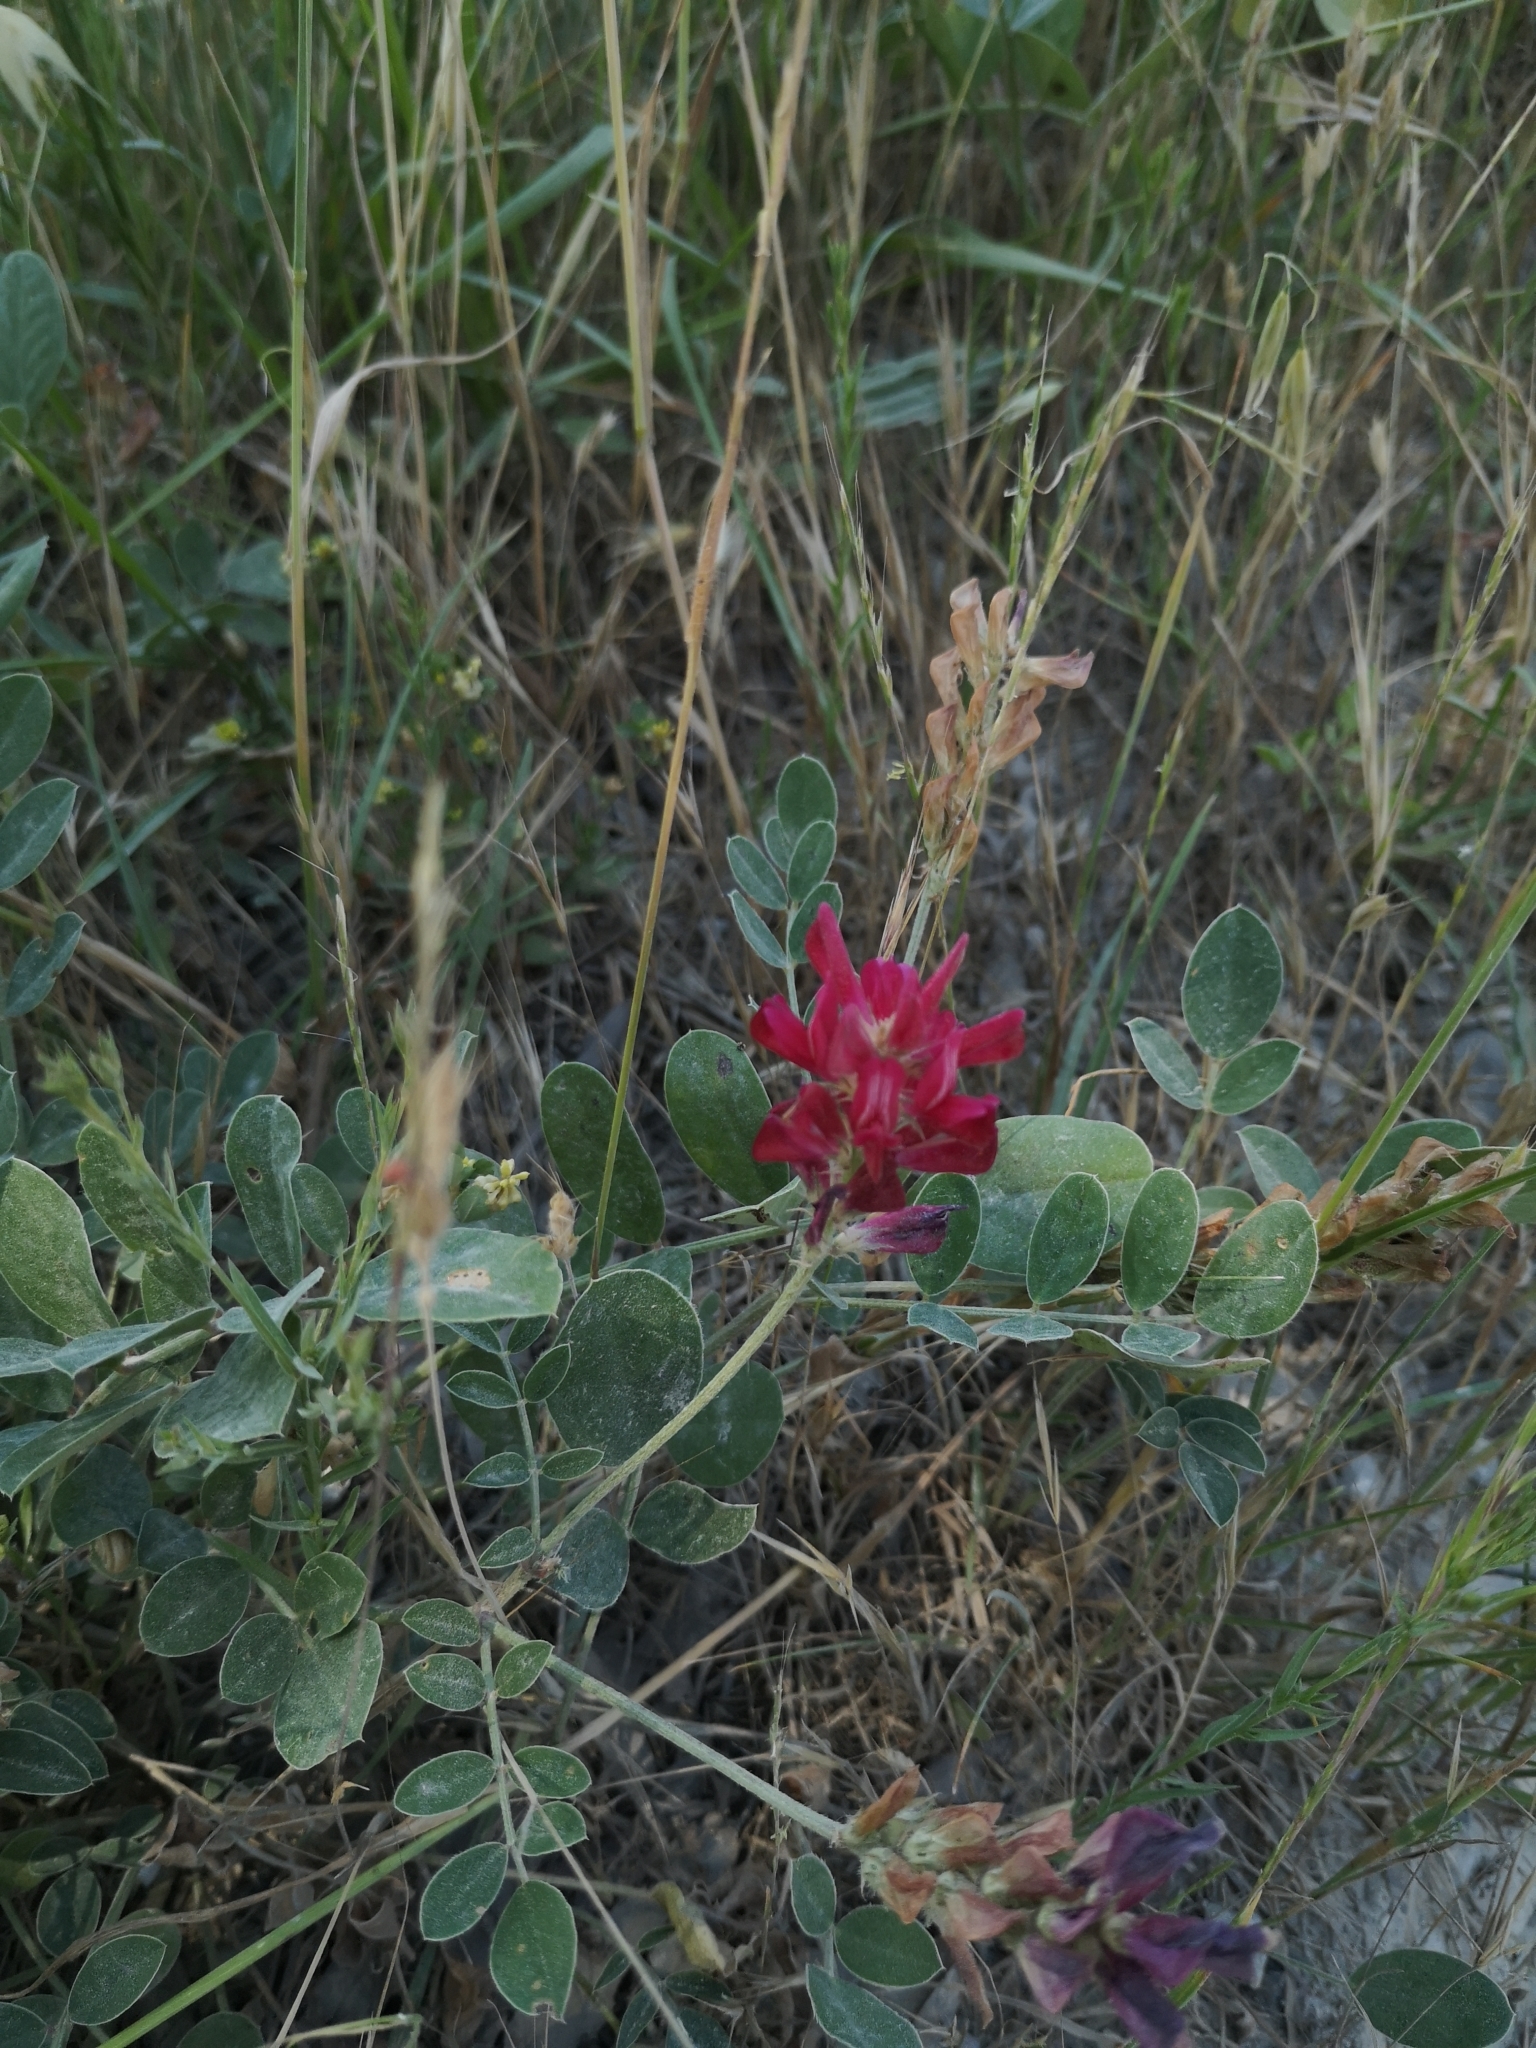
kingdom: Plantae
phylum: Tracheophyta
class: Magnoliopsida
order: Fabales
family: Fabaceae
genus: Sulla
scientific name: Sulla coronaria
